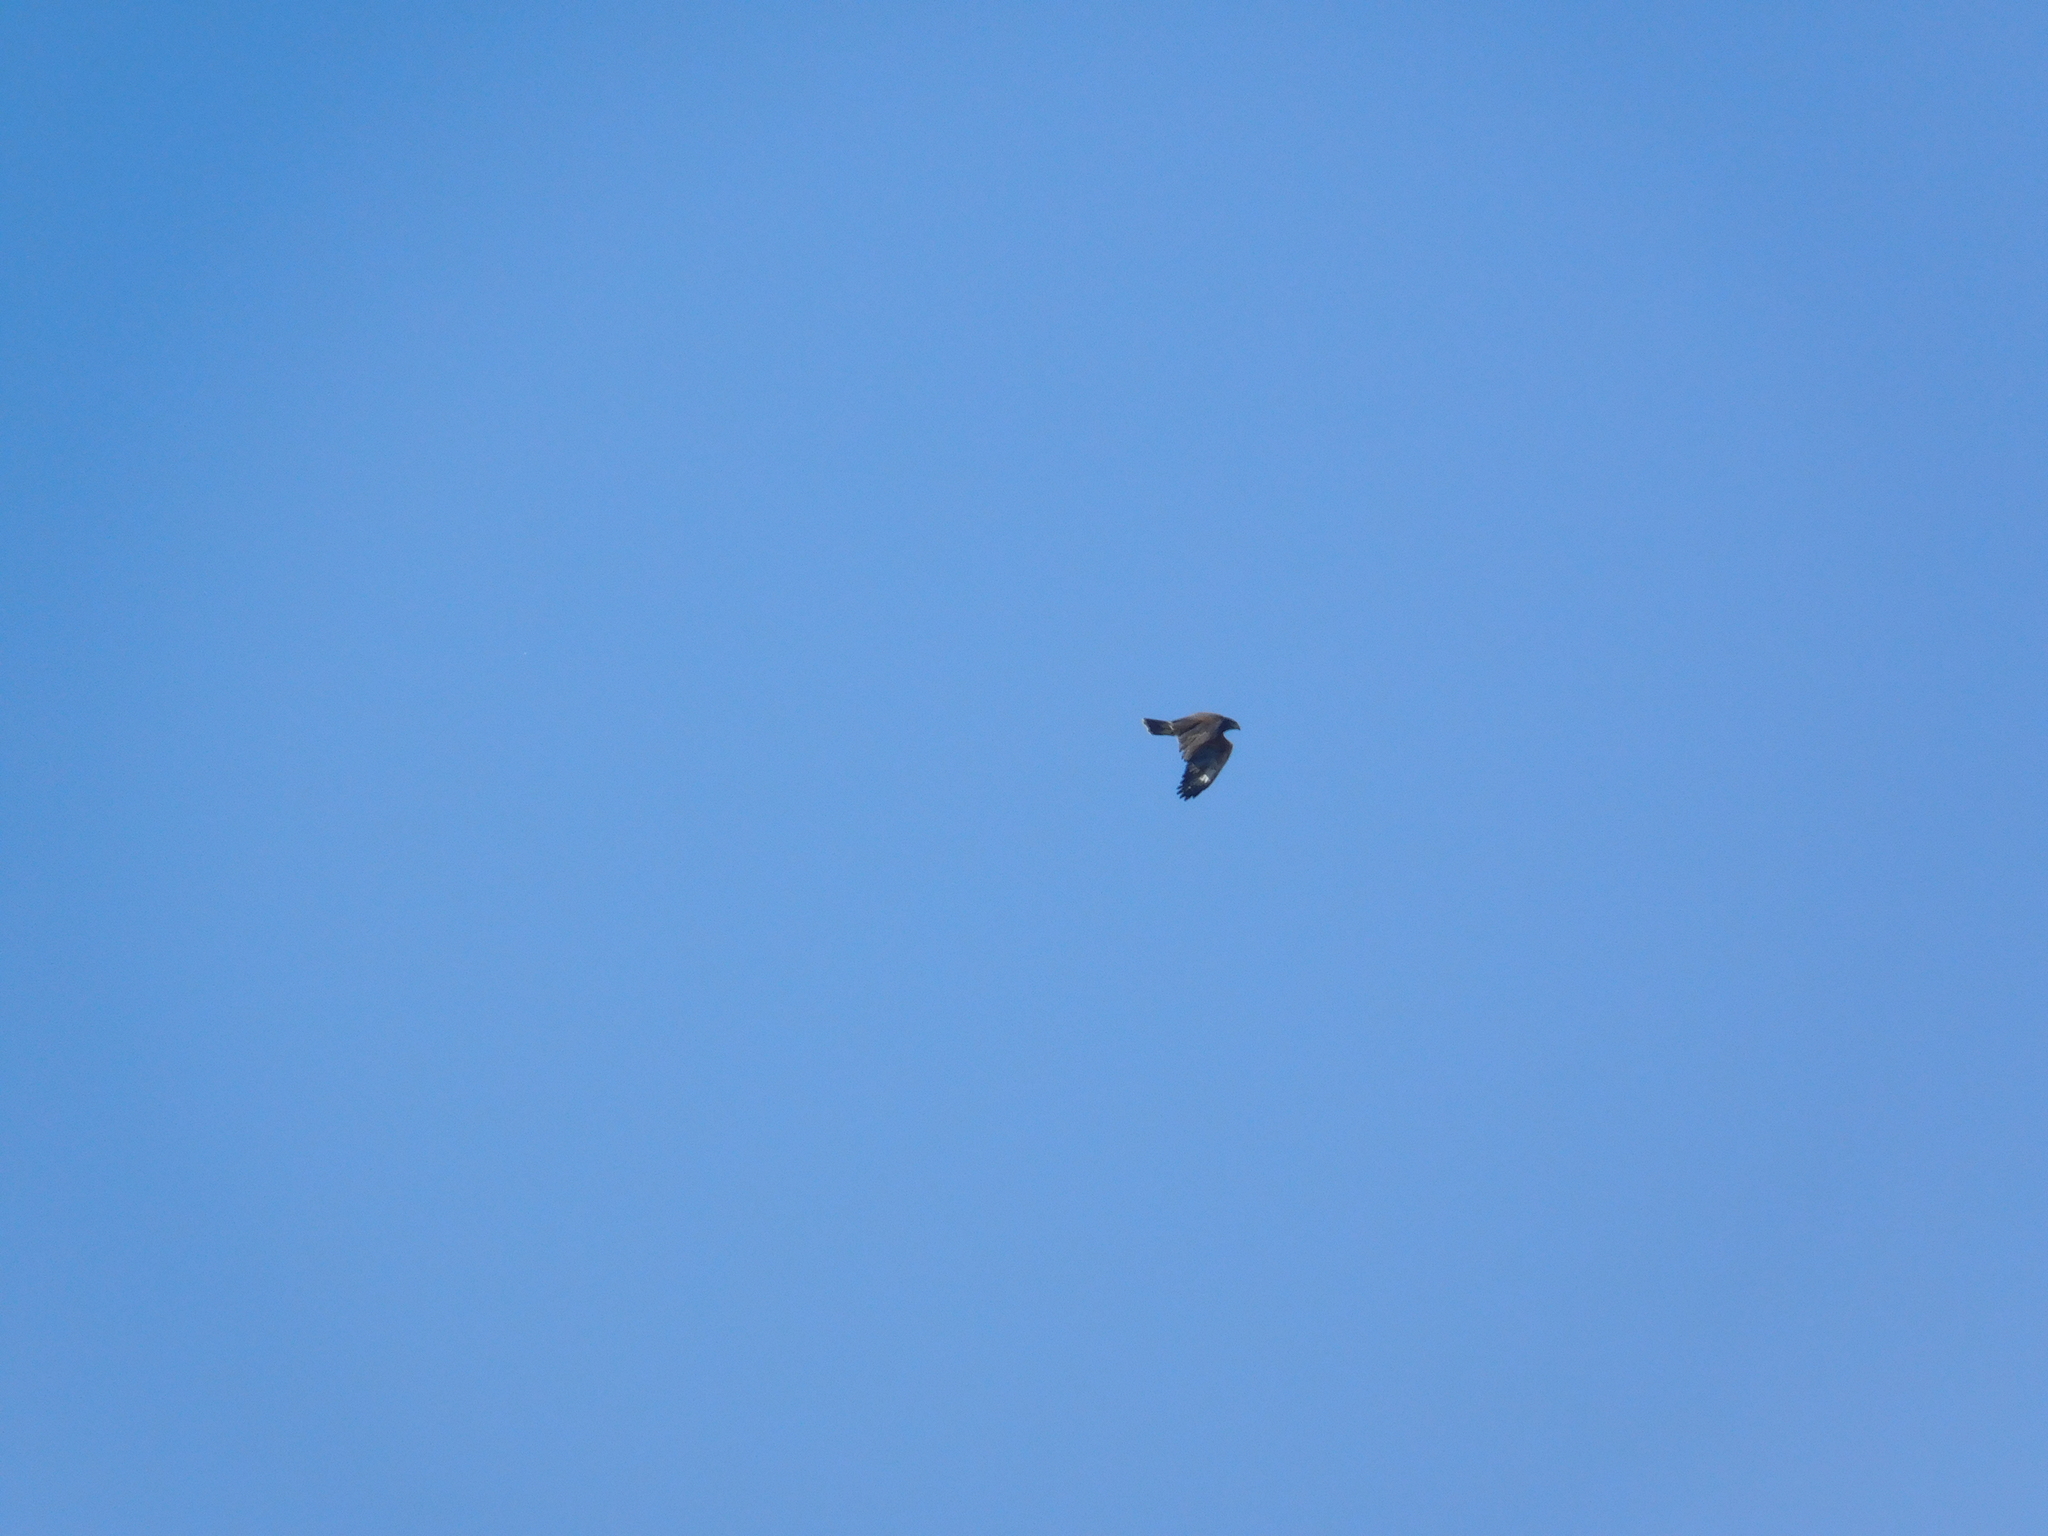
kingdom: Animalia
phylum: Chordata
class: Aves
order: Accipitriformes
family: Accipitridae
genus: Parabuteo
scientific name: Parabuteo unicinctus
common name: Harris's hawk
